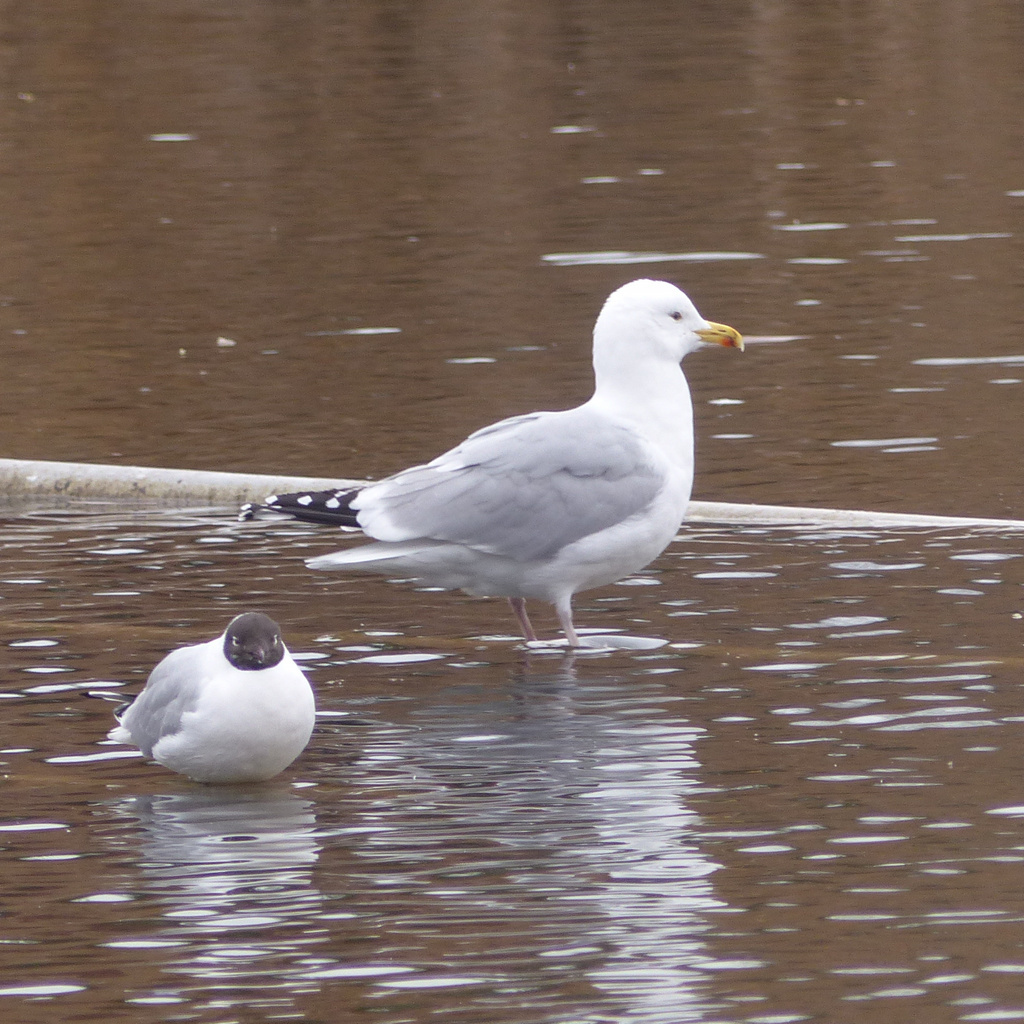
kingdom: Animalia
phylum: Chordata
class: Aves
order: Charadriiformes
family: Laridae
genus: Larus
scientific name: Larus argentatus
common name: Herring gull
